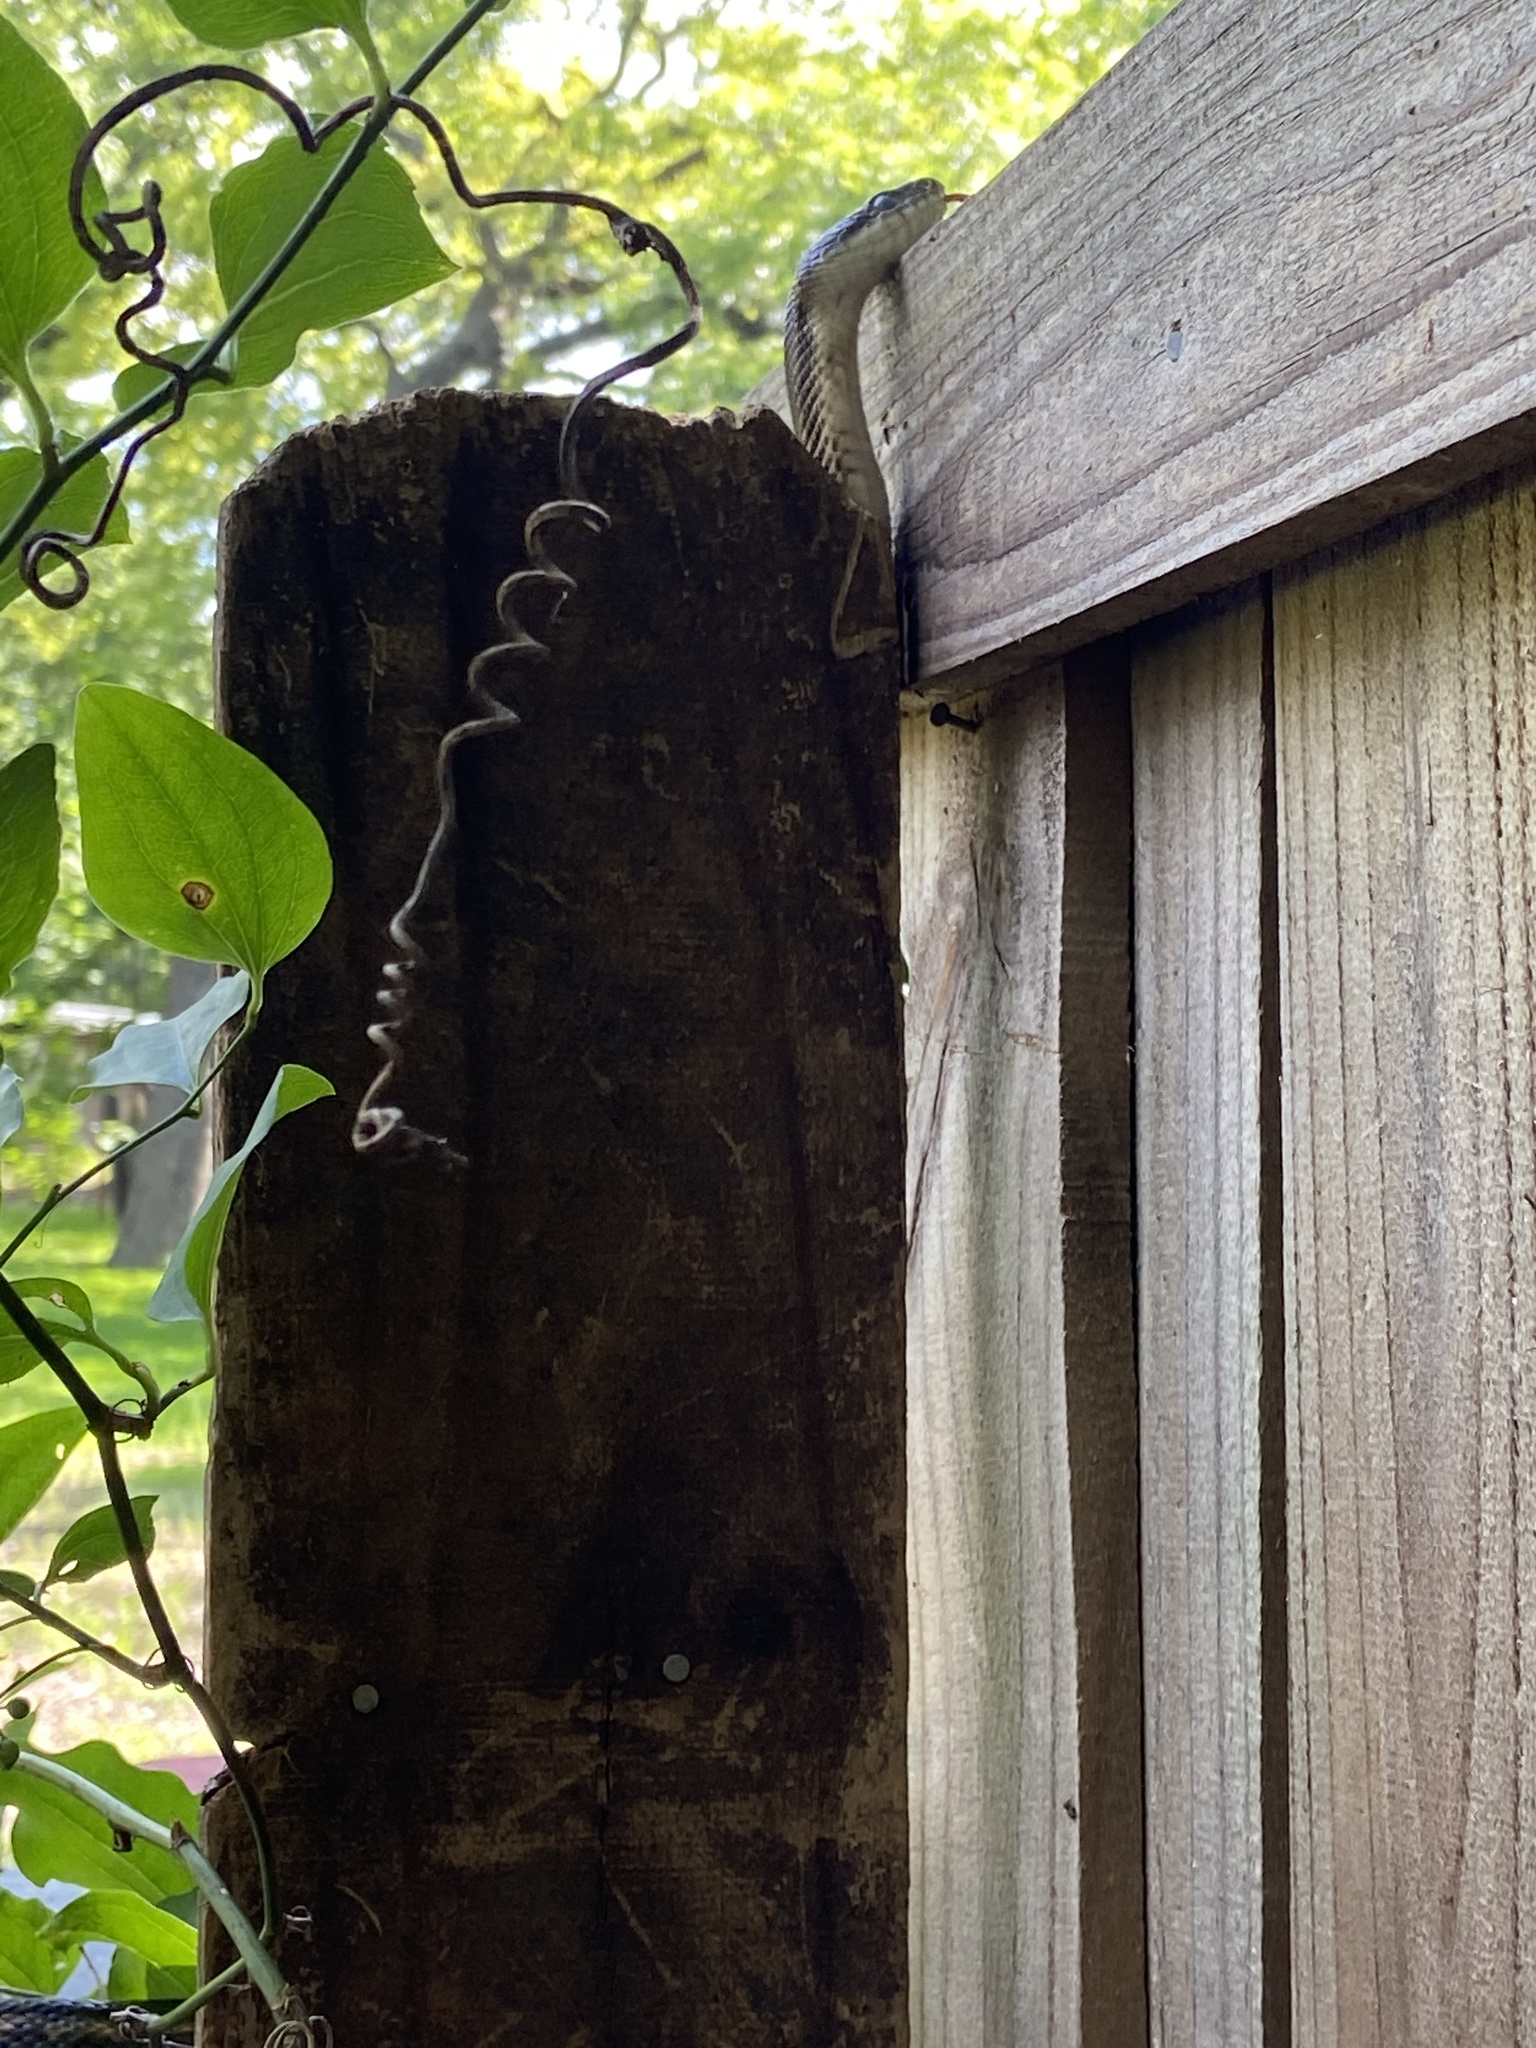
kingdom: Animalia
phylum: Chordata
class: Squamata
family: Colubridae
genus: Pantherophis
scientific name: Pantherophis obsoletus
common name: Black rat snake
